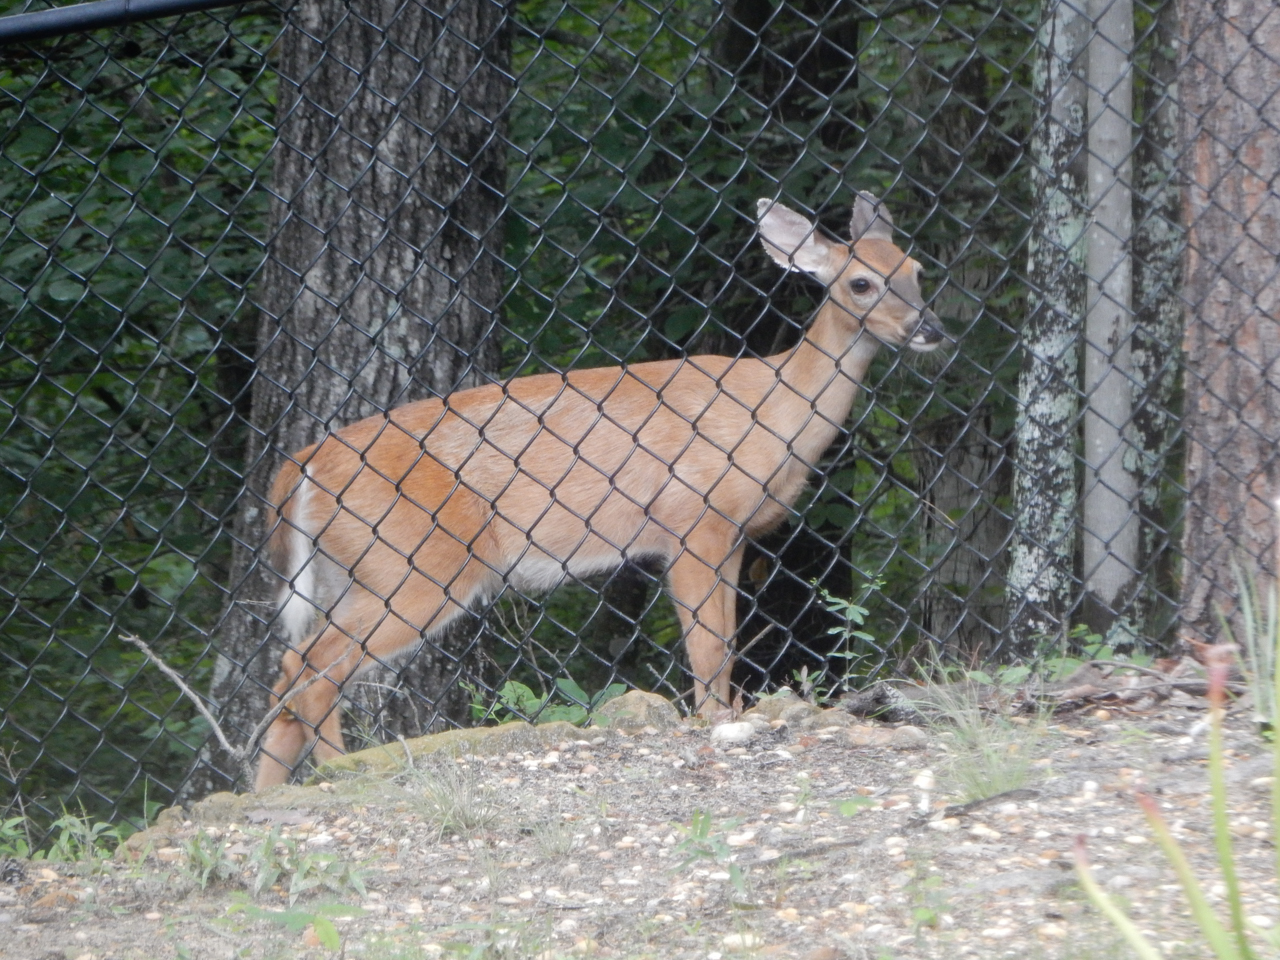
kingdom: Animalia
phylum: Chordata
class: Mammalia
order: Artiodactyla
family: Cervidae
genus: Odocoileus
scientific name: Odocoileus virginianus
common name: White-tailed deer
